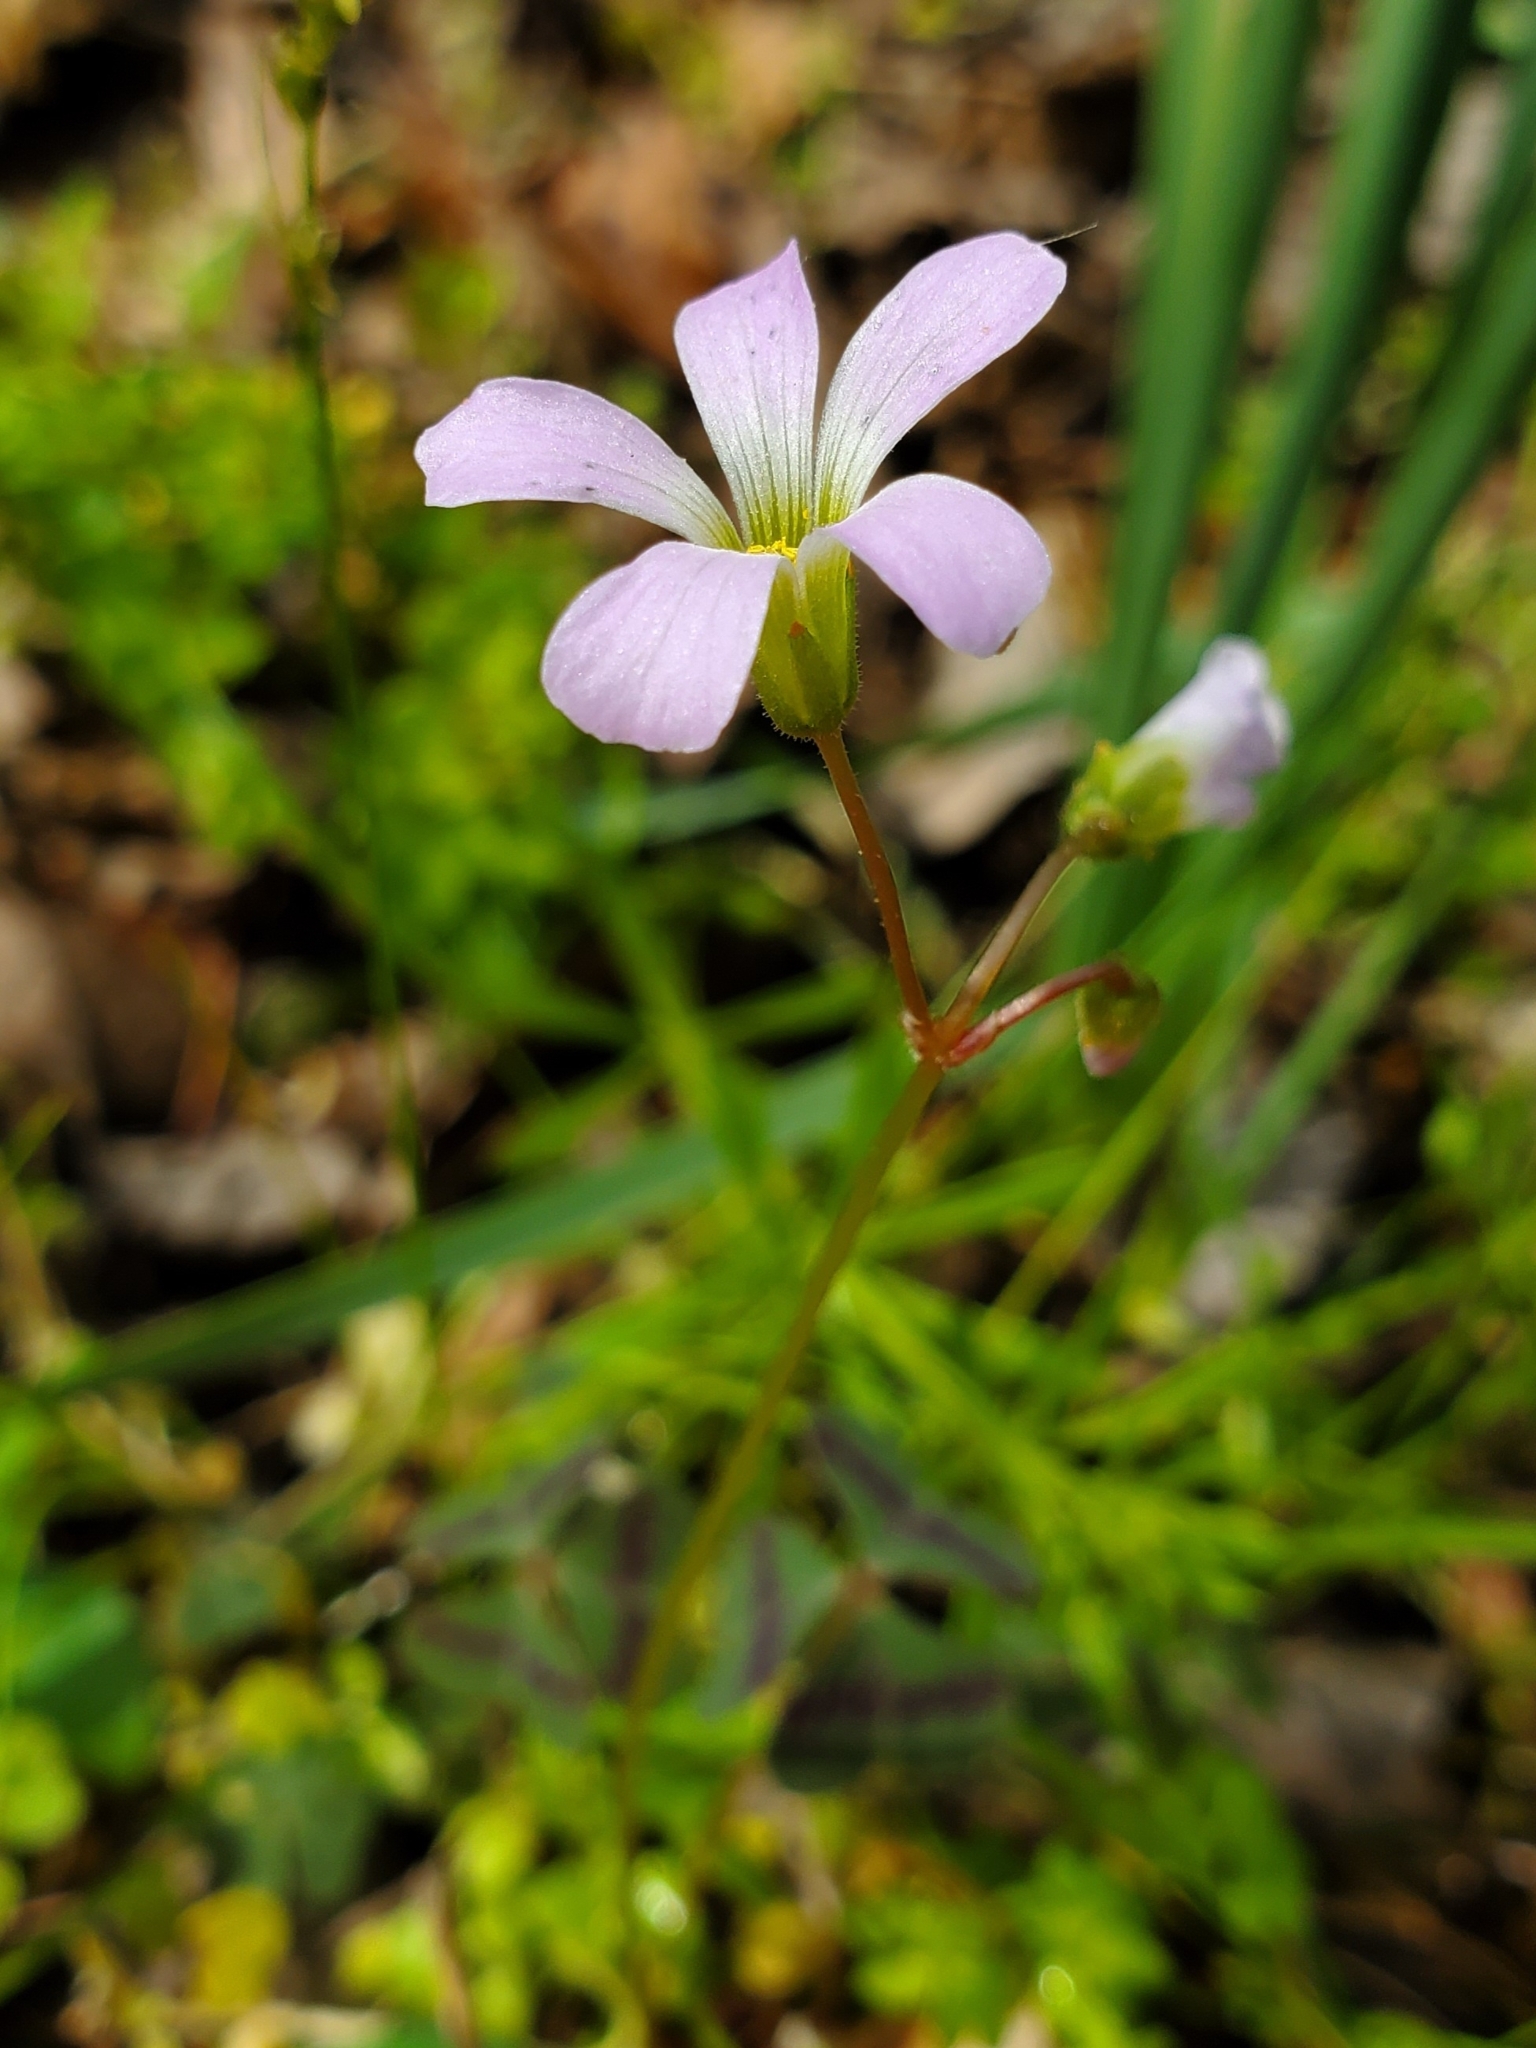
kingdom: Plantae
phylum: Tracheophyta
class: Magnoliopsida
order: Oxalidales
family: Oxalidaceae
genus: Oxalis
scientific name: Oxalis violacea
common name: Violet wood-sorrel
